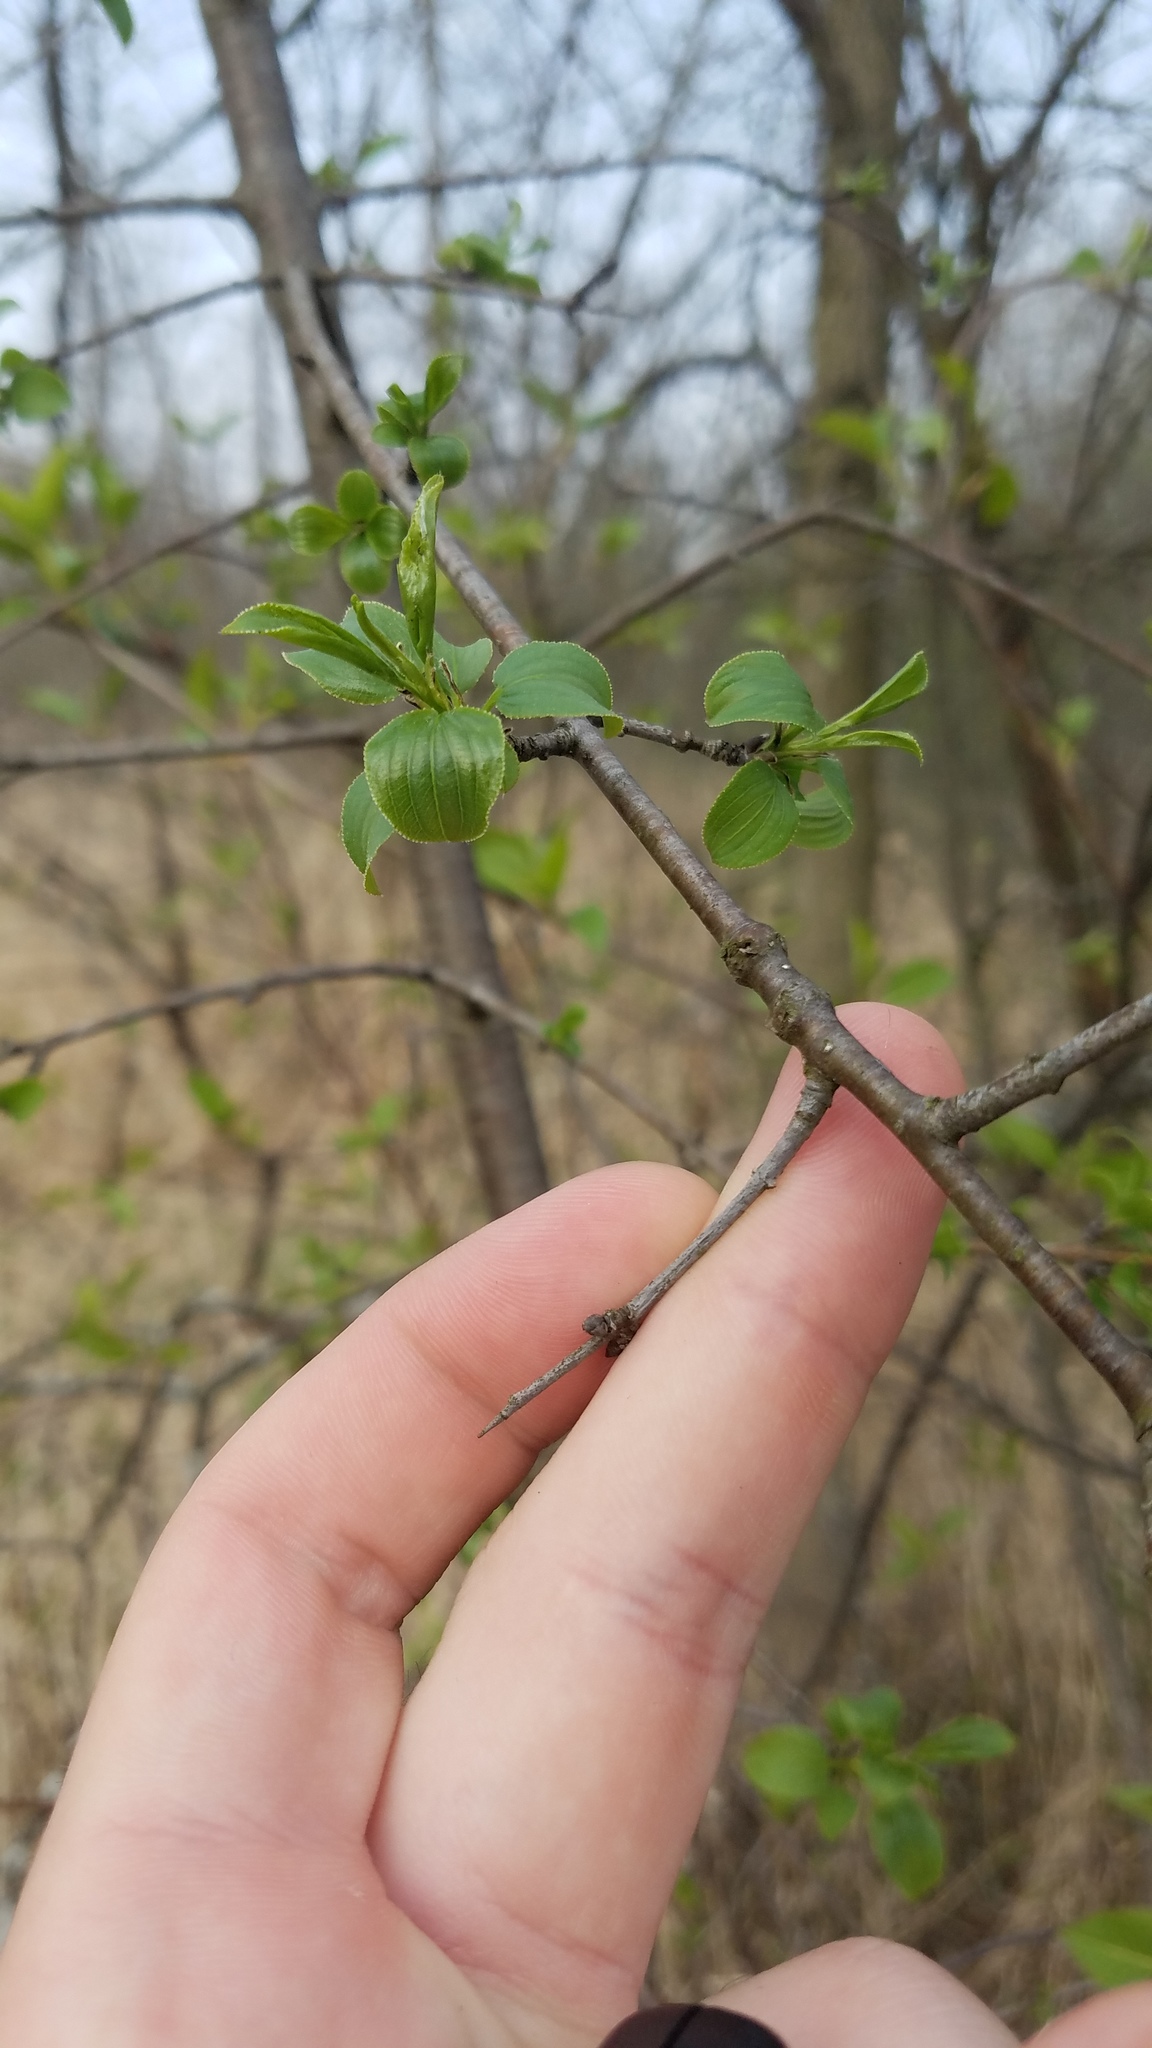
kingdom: Plantae
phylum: Tracheophyta
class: Magnoliopsida
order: Rosales
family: Rhamnaceae
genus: Rhamnus
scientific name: Rhamnus cathartica
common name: Common buckthorn
